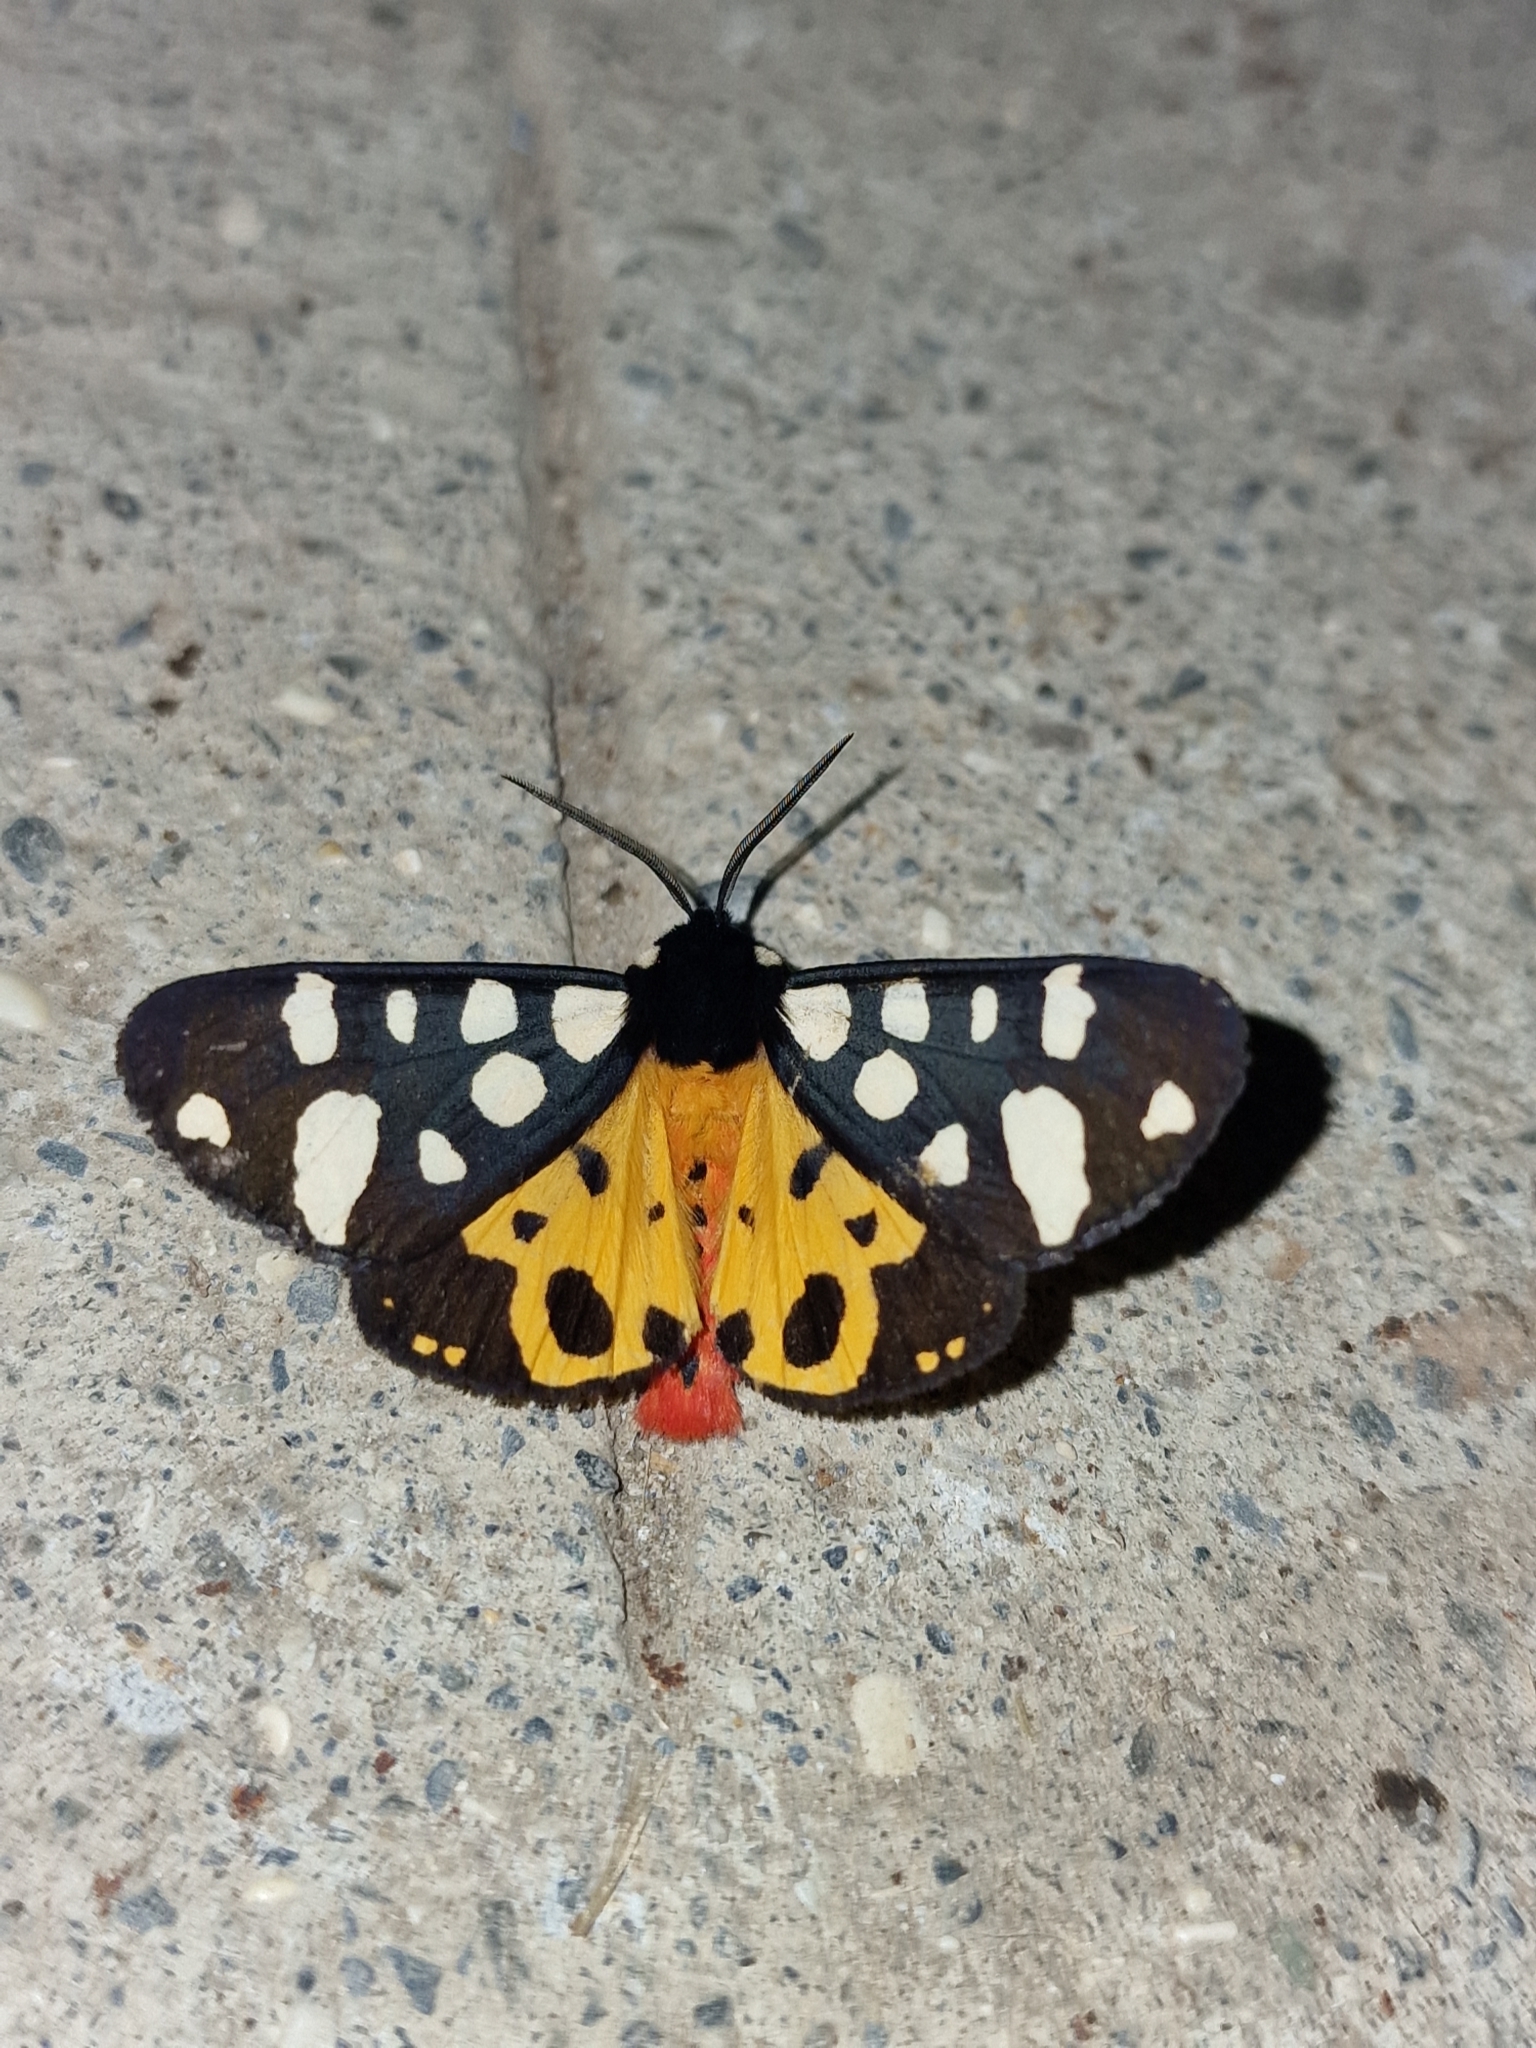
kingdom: Animalia
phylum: Arthropoda
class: Insecta
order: Lepidoptera
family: Erebidae
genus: Epicallia
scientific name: Epicallia villica
